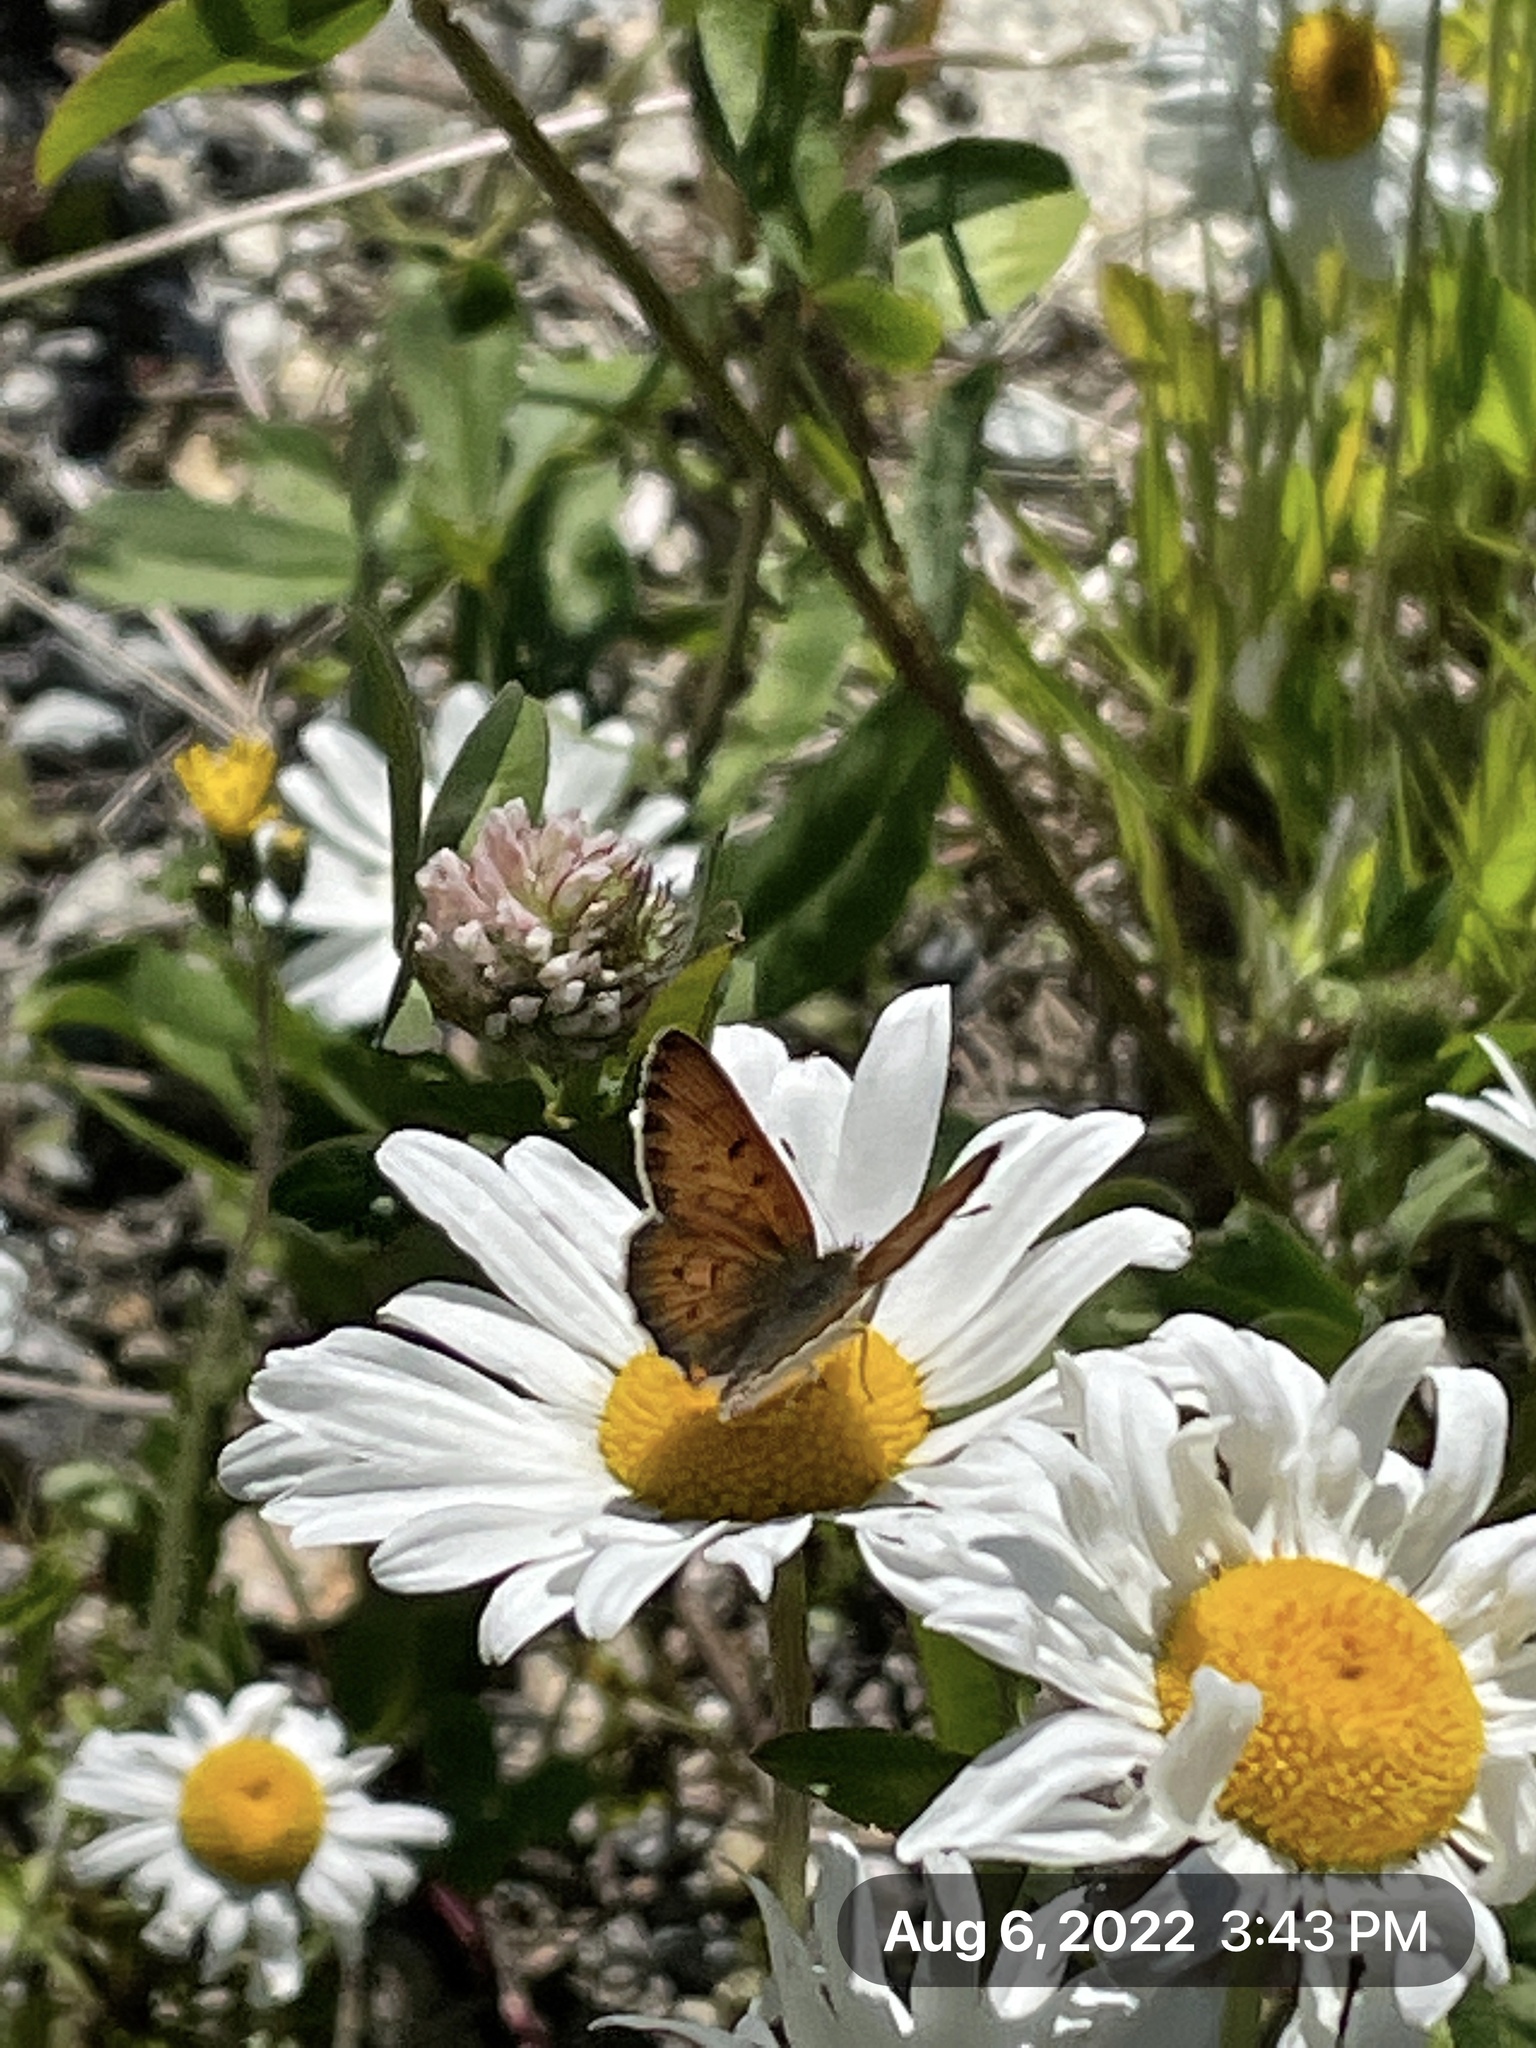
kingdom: Animalia
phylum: Arthropoda
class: Insecta
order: Lepidoptera
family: Lycaenidae
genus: Tharsalea
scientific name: Tharsalea helloides
